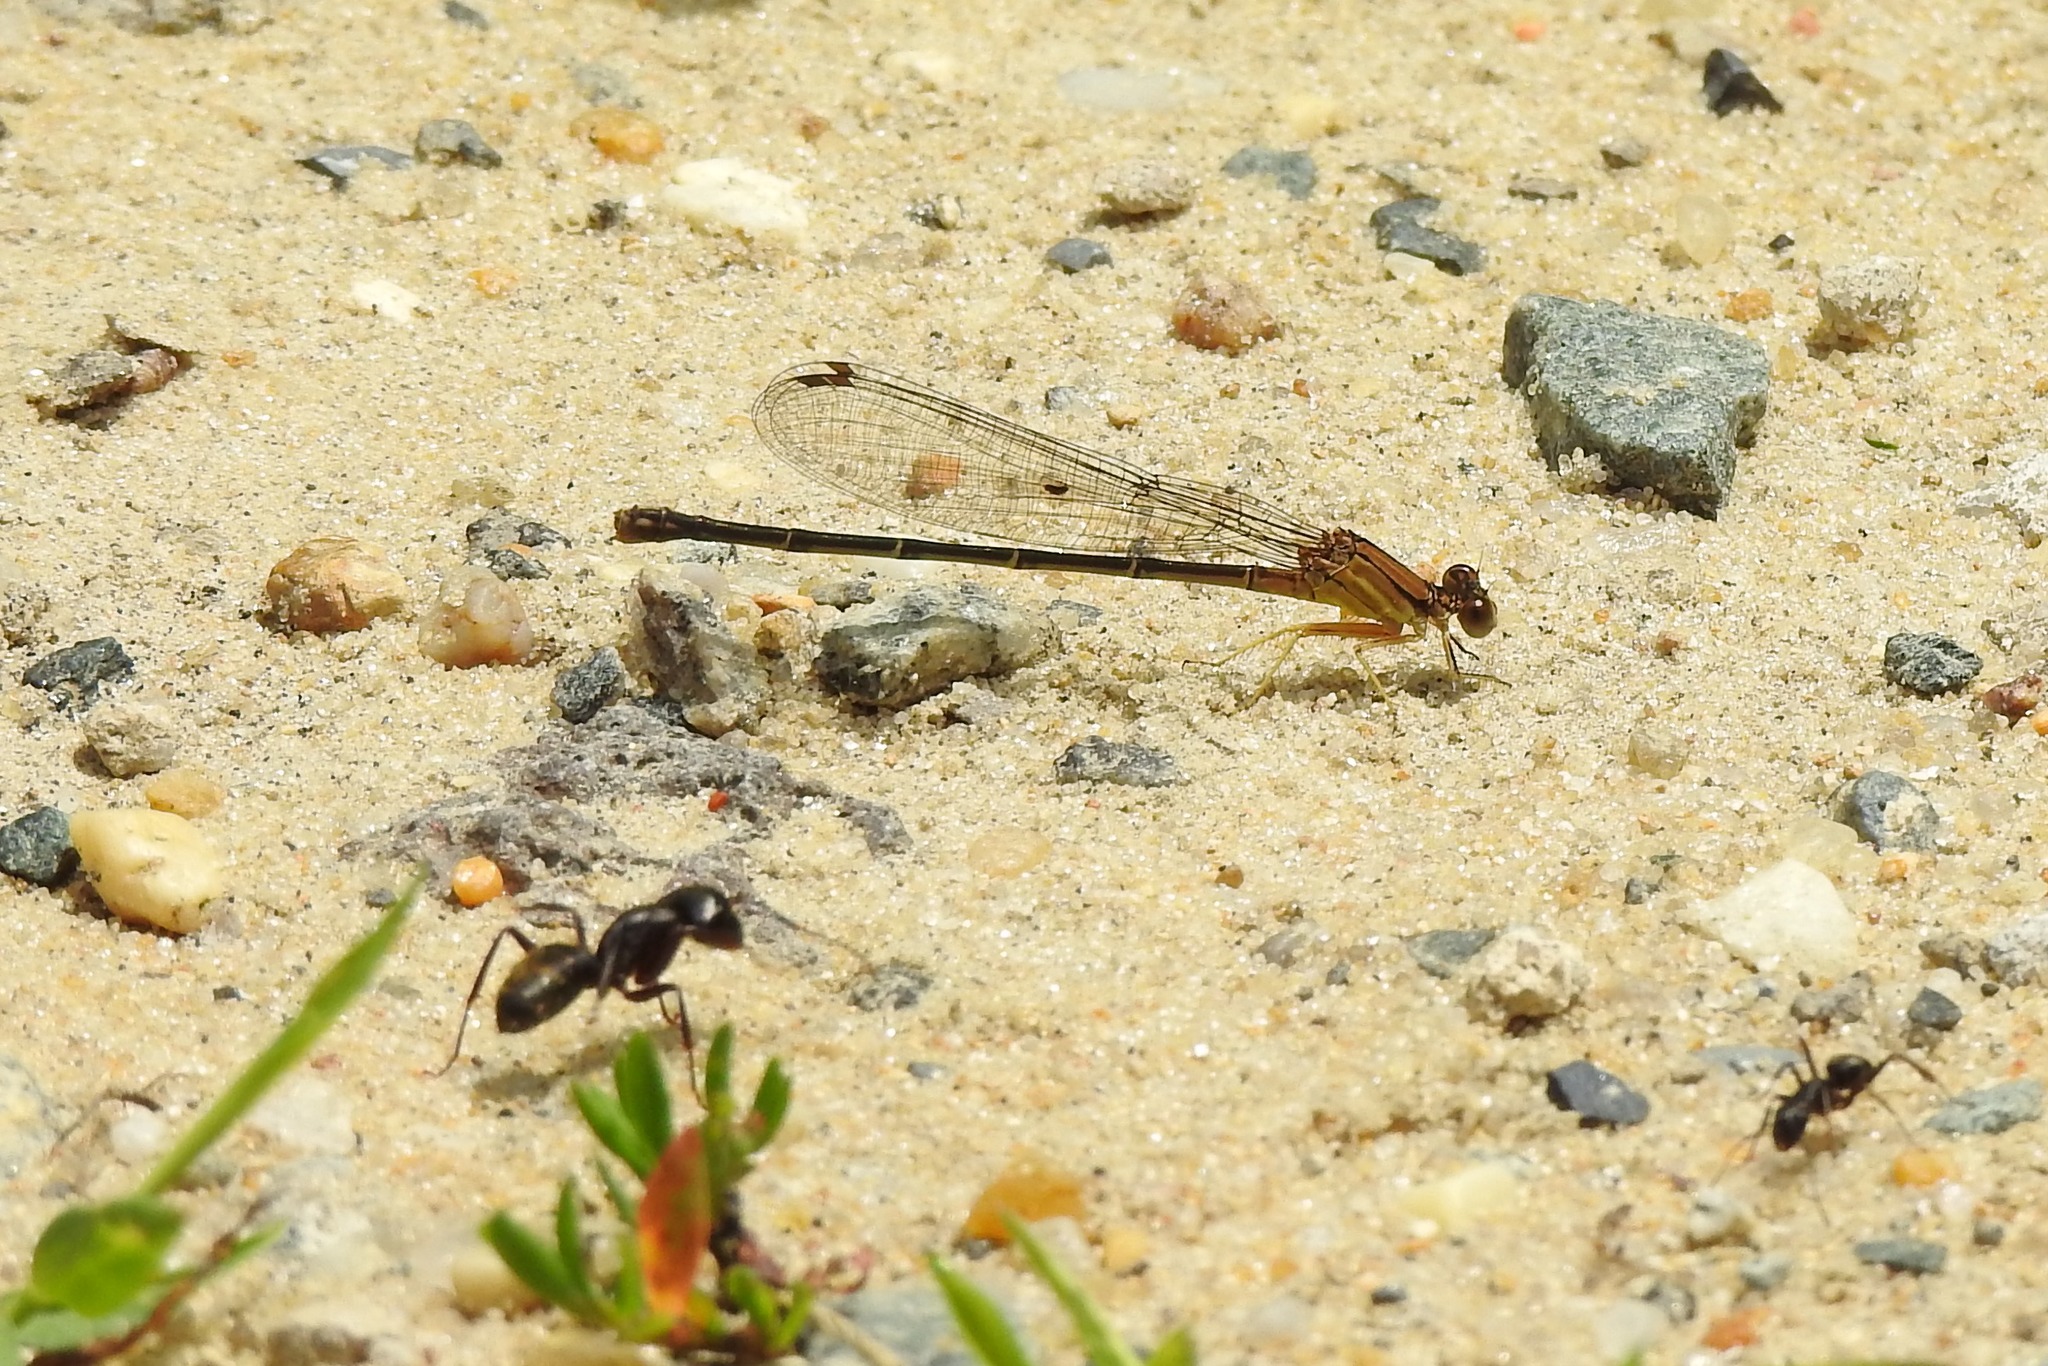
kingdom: Animalia
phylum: Arthropoda
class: Insecta
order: Odonata
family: Coenagrionidae
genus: Argia
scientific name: Argia apicalis
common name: Blue-fronted dancer
